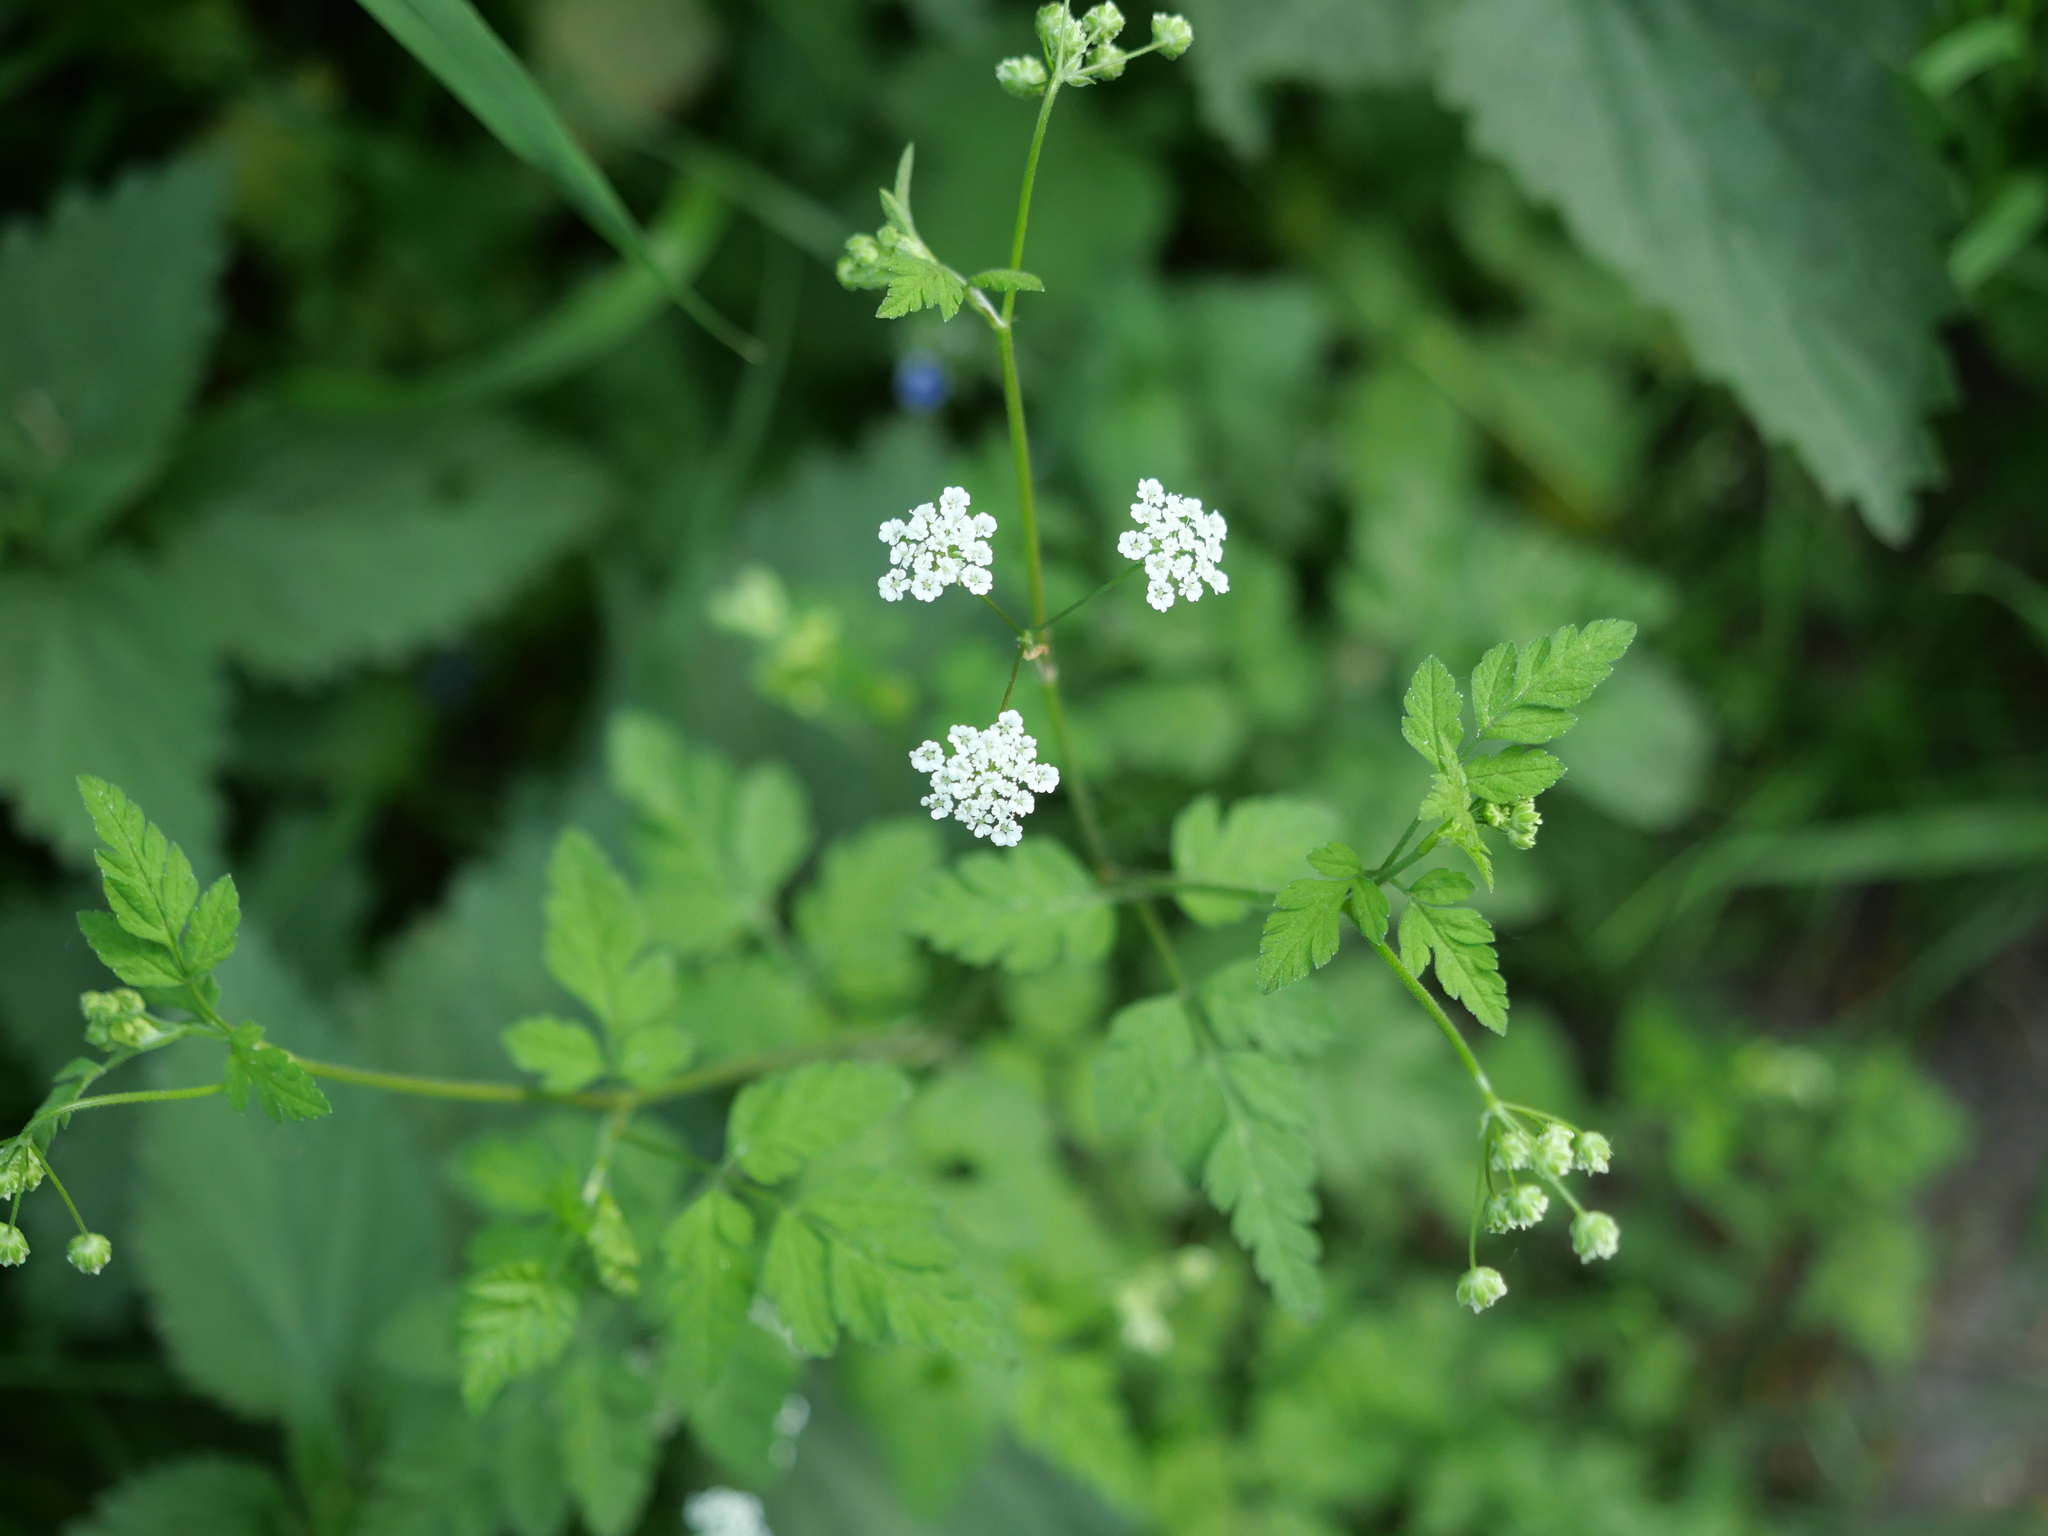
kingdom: Plantae
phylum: Tracheophyta
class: Magnoliopsida
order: Apiales
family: Apiaceae
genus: Chaerophyllum
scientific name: Chaerophyllum temulum
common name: Rough chervil
